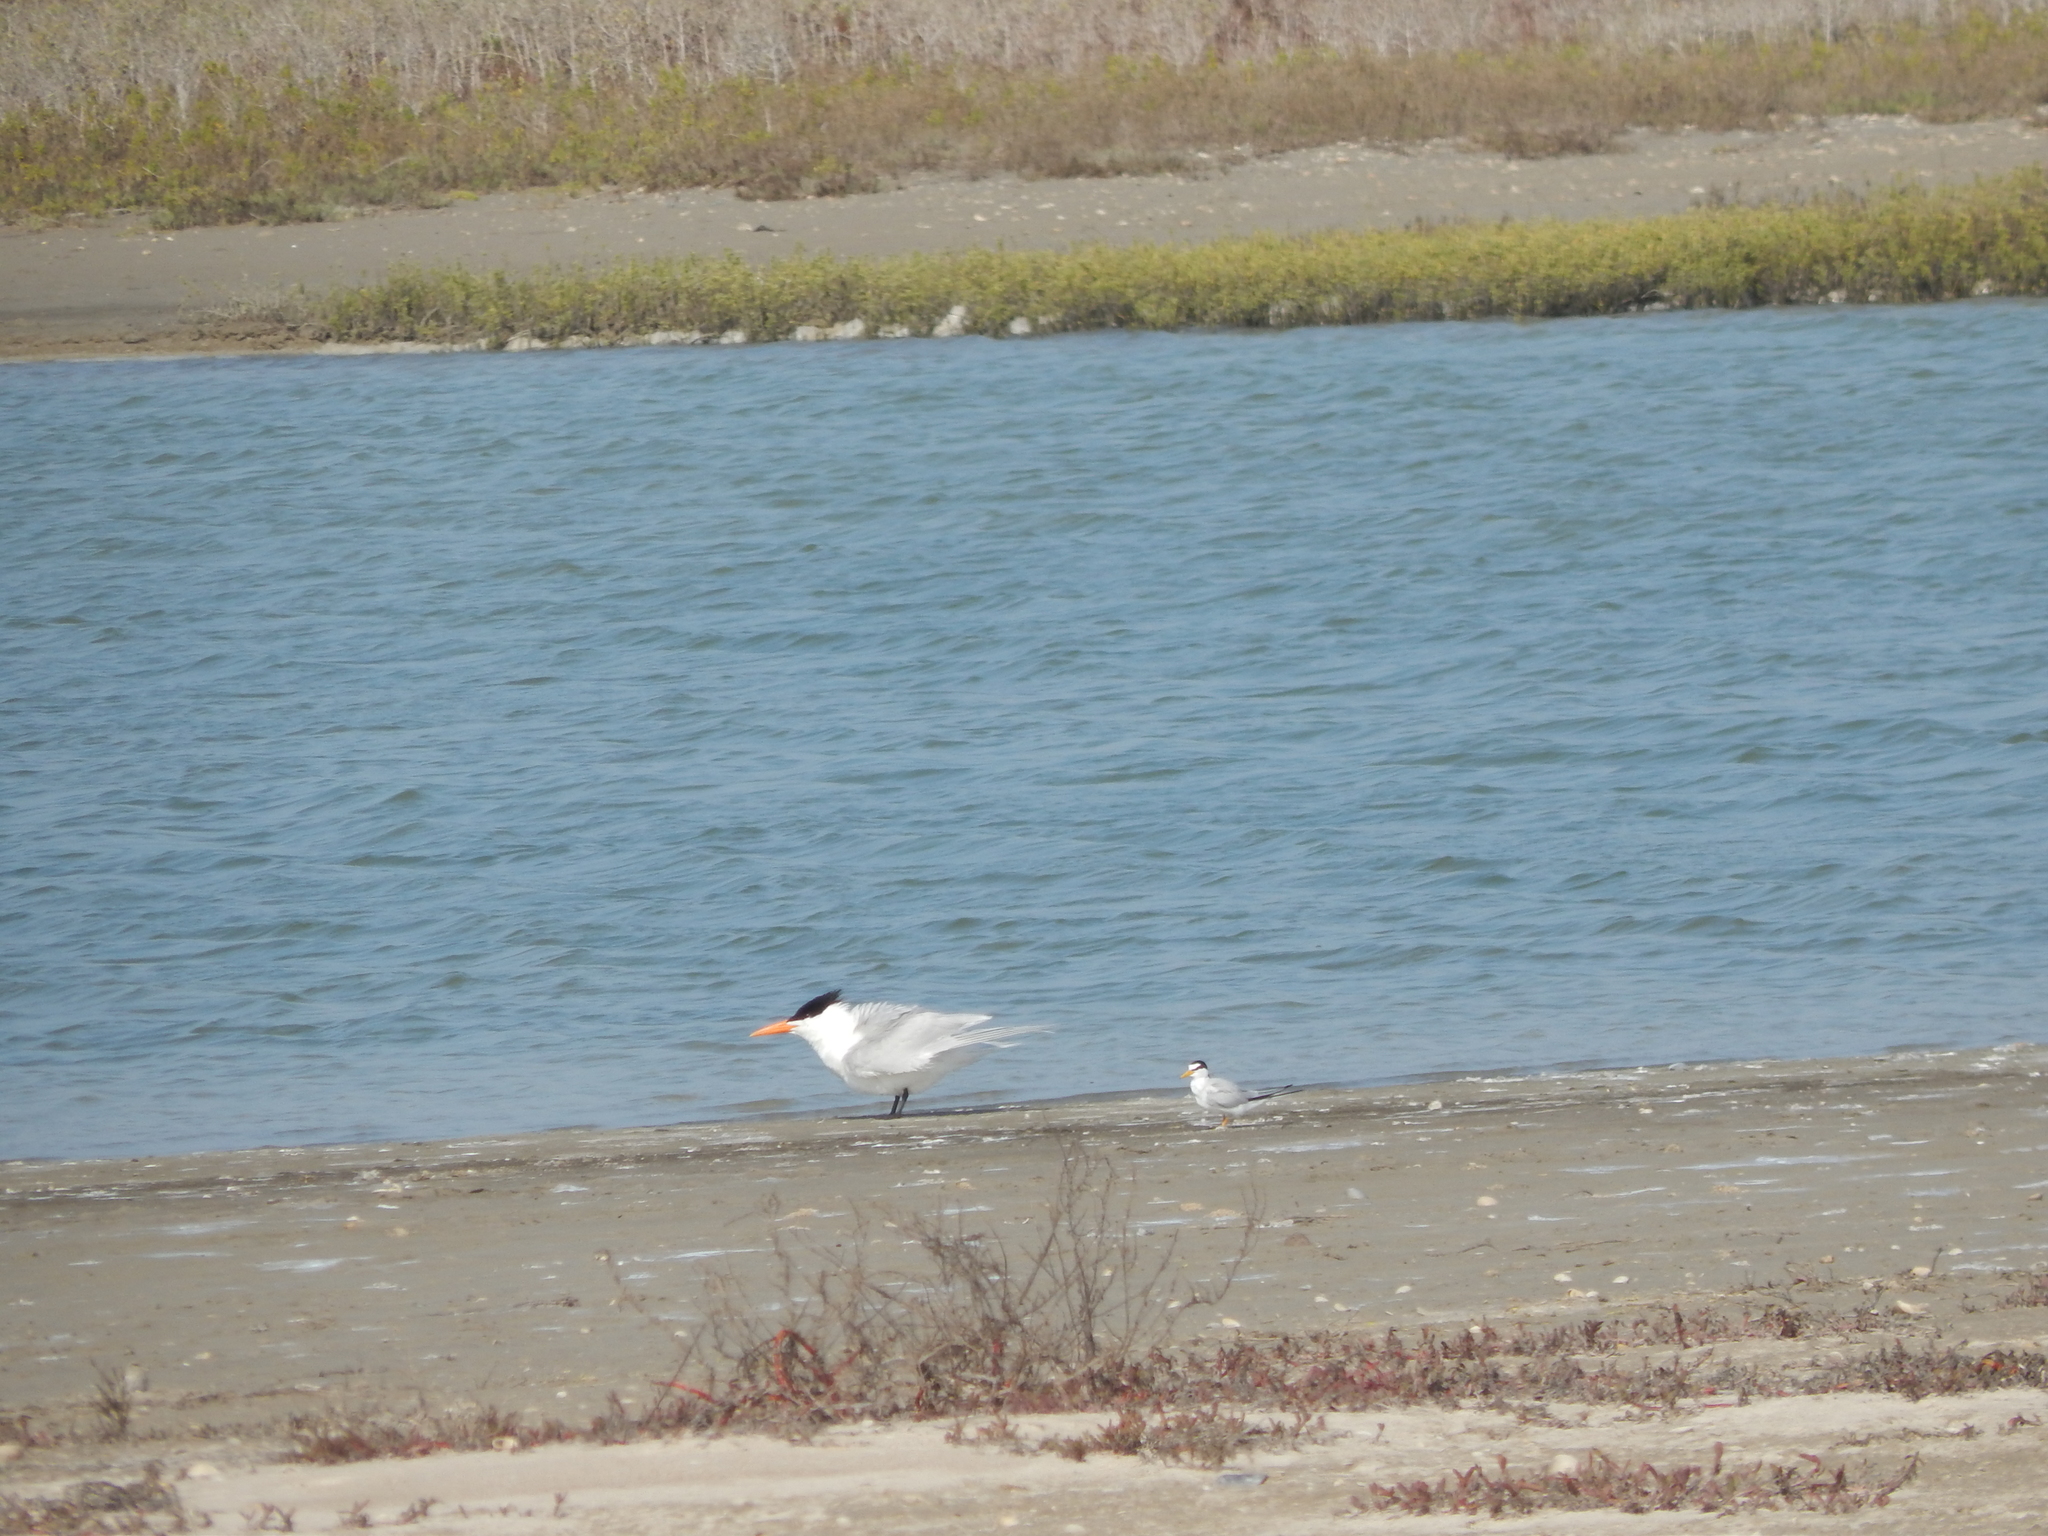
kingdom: Animalia
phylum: Chordata
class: Aves
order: Charadriiformes
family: Laridae
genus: Sternula
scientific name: Sternula antillarum
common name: Least tern
